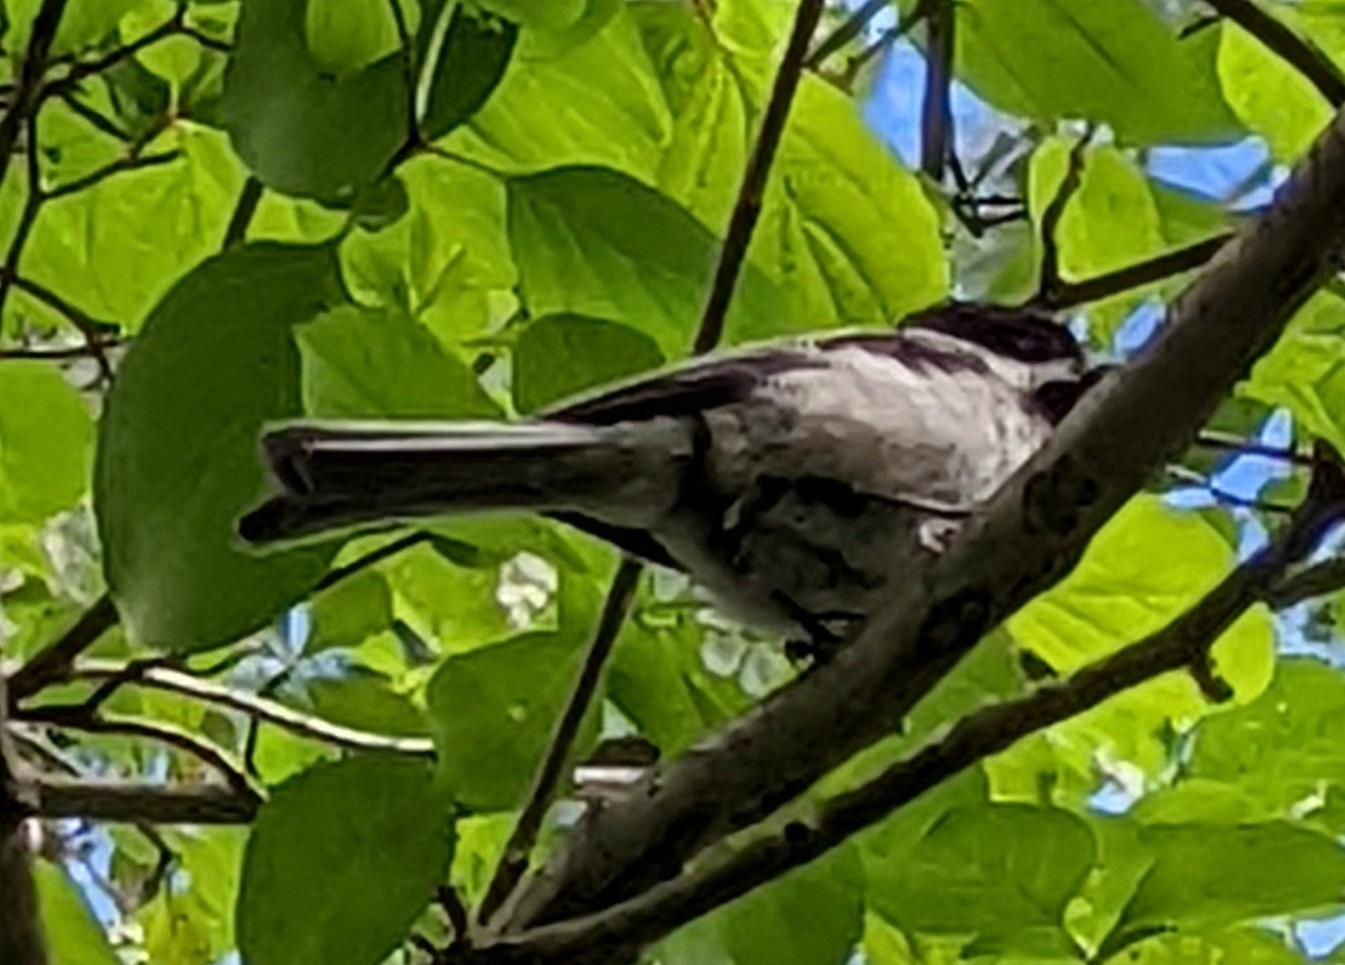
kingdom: Animalia
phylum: Chordata
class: Aves
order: Passeriformes
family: Paridae
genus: Poecile
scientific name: Poecile atricapillus
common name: Black-capped chickadee
